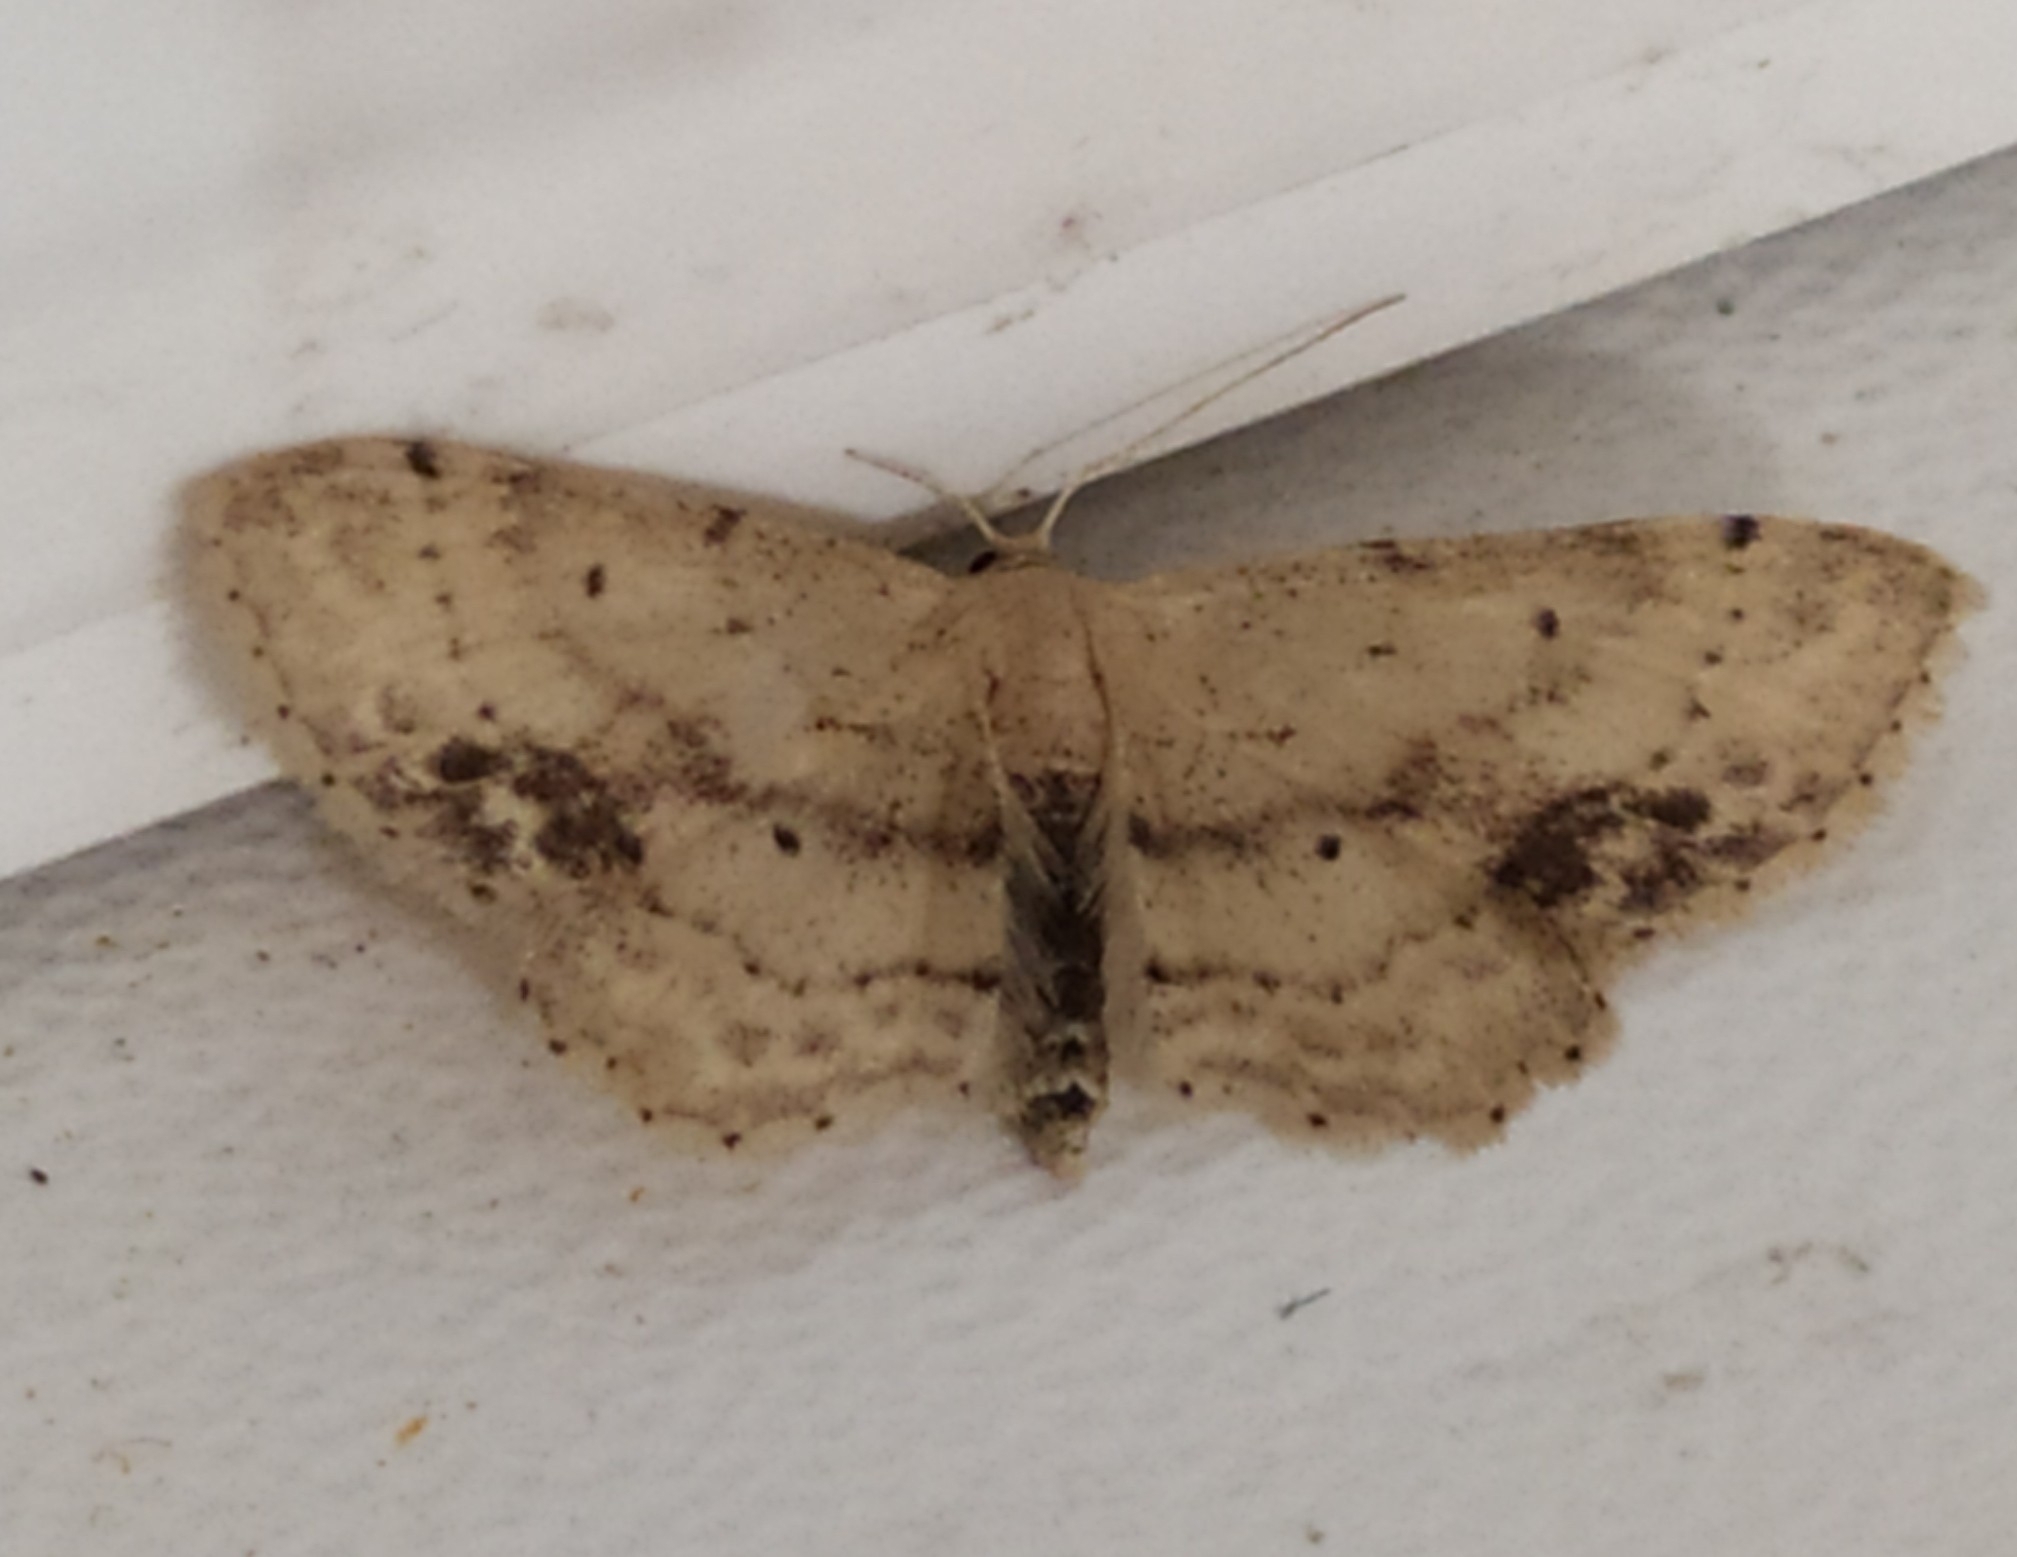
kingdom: Animalia
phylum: Arthropoda
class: Insecta
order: Lepidoptera
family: Geometridae
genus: Idaea
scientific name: Idaea dimidiata
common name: Single-dotted wave
